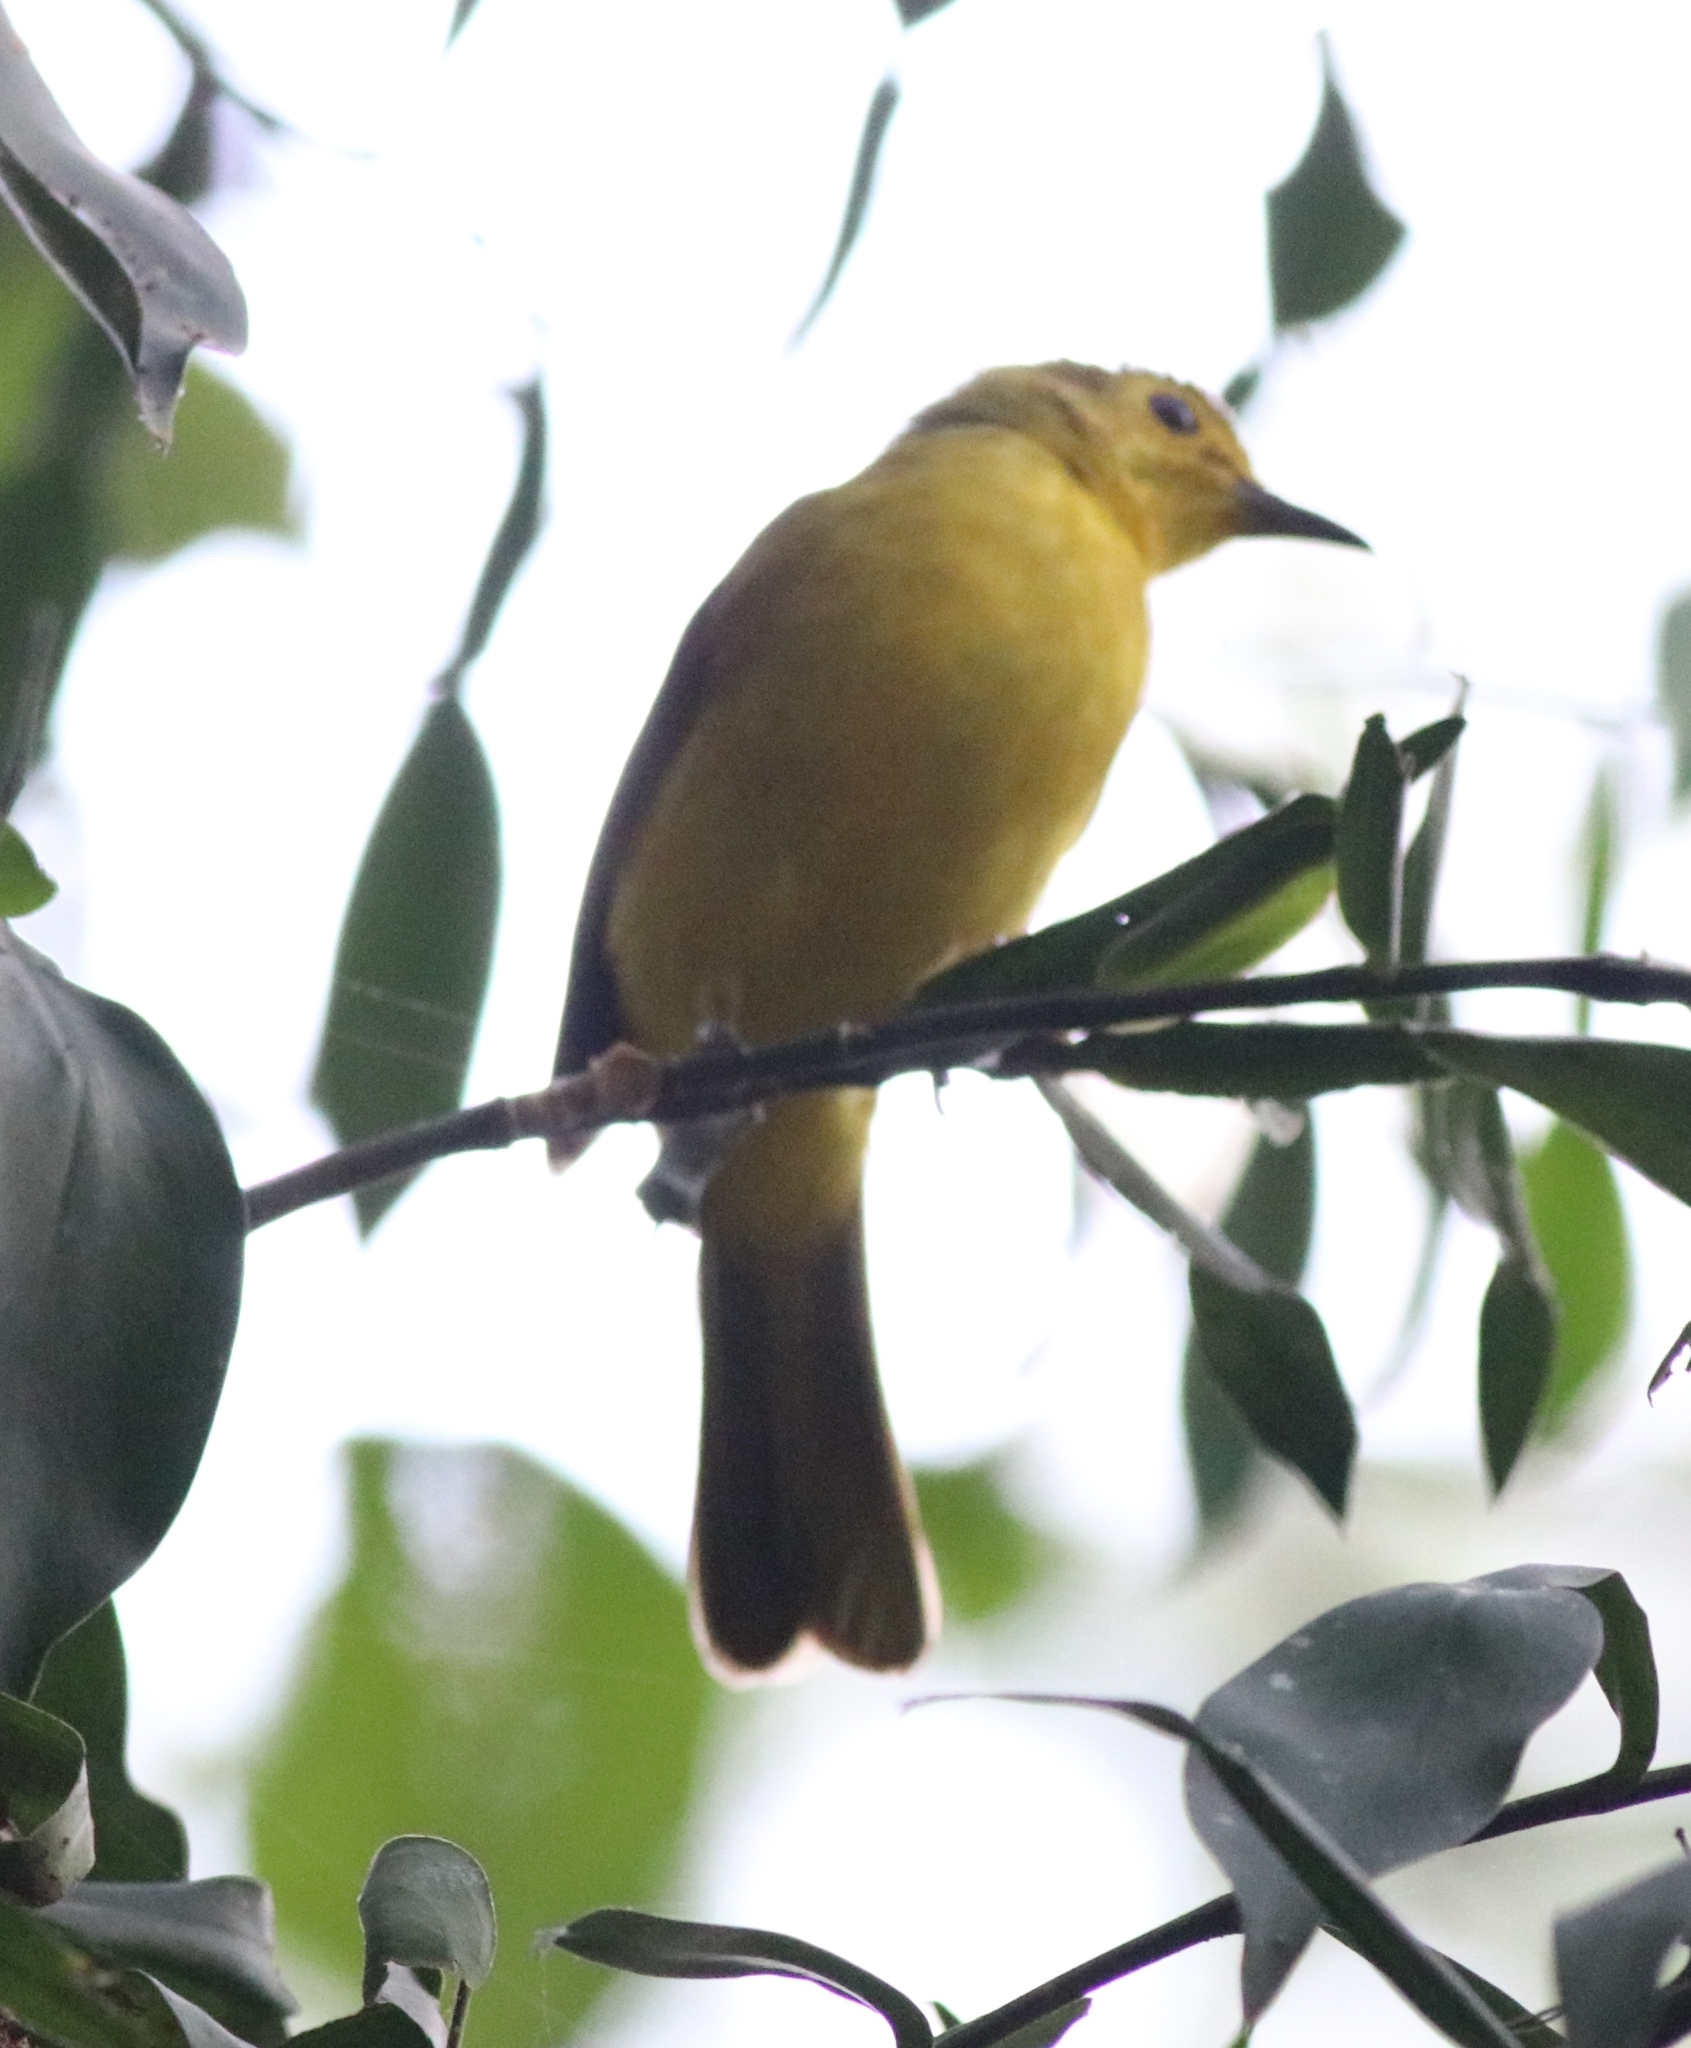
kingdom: Animalia
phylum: Chordata
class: Aves
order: Passeriformes
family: Pycnonotidae
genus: Acritillas
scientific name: Acritillas indica
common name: Yellow-browed bulbul
